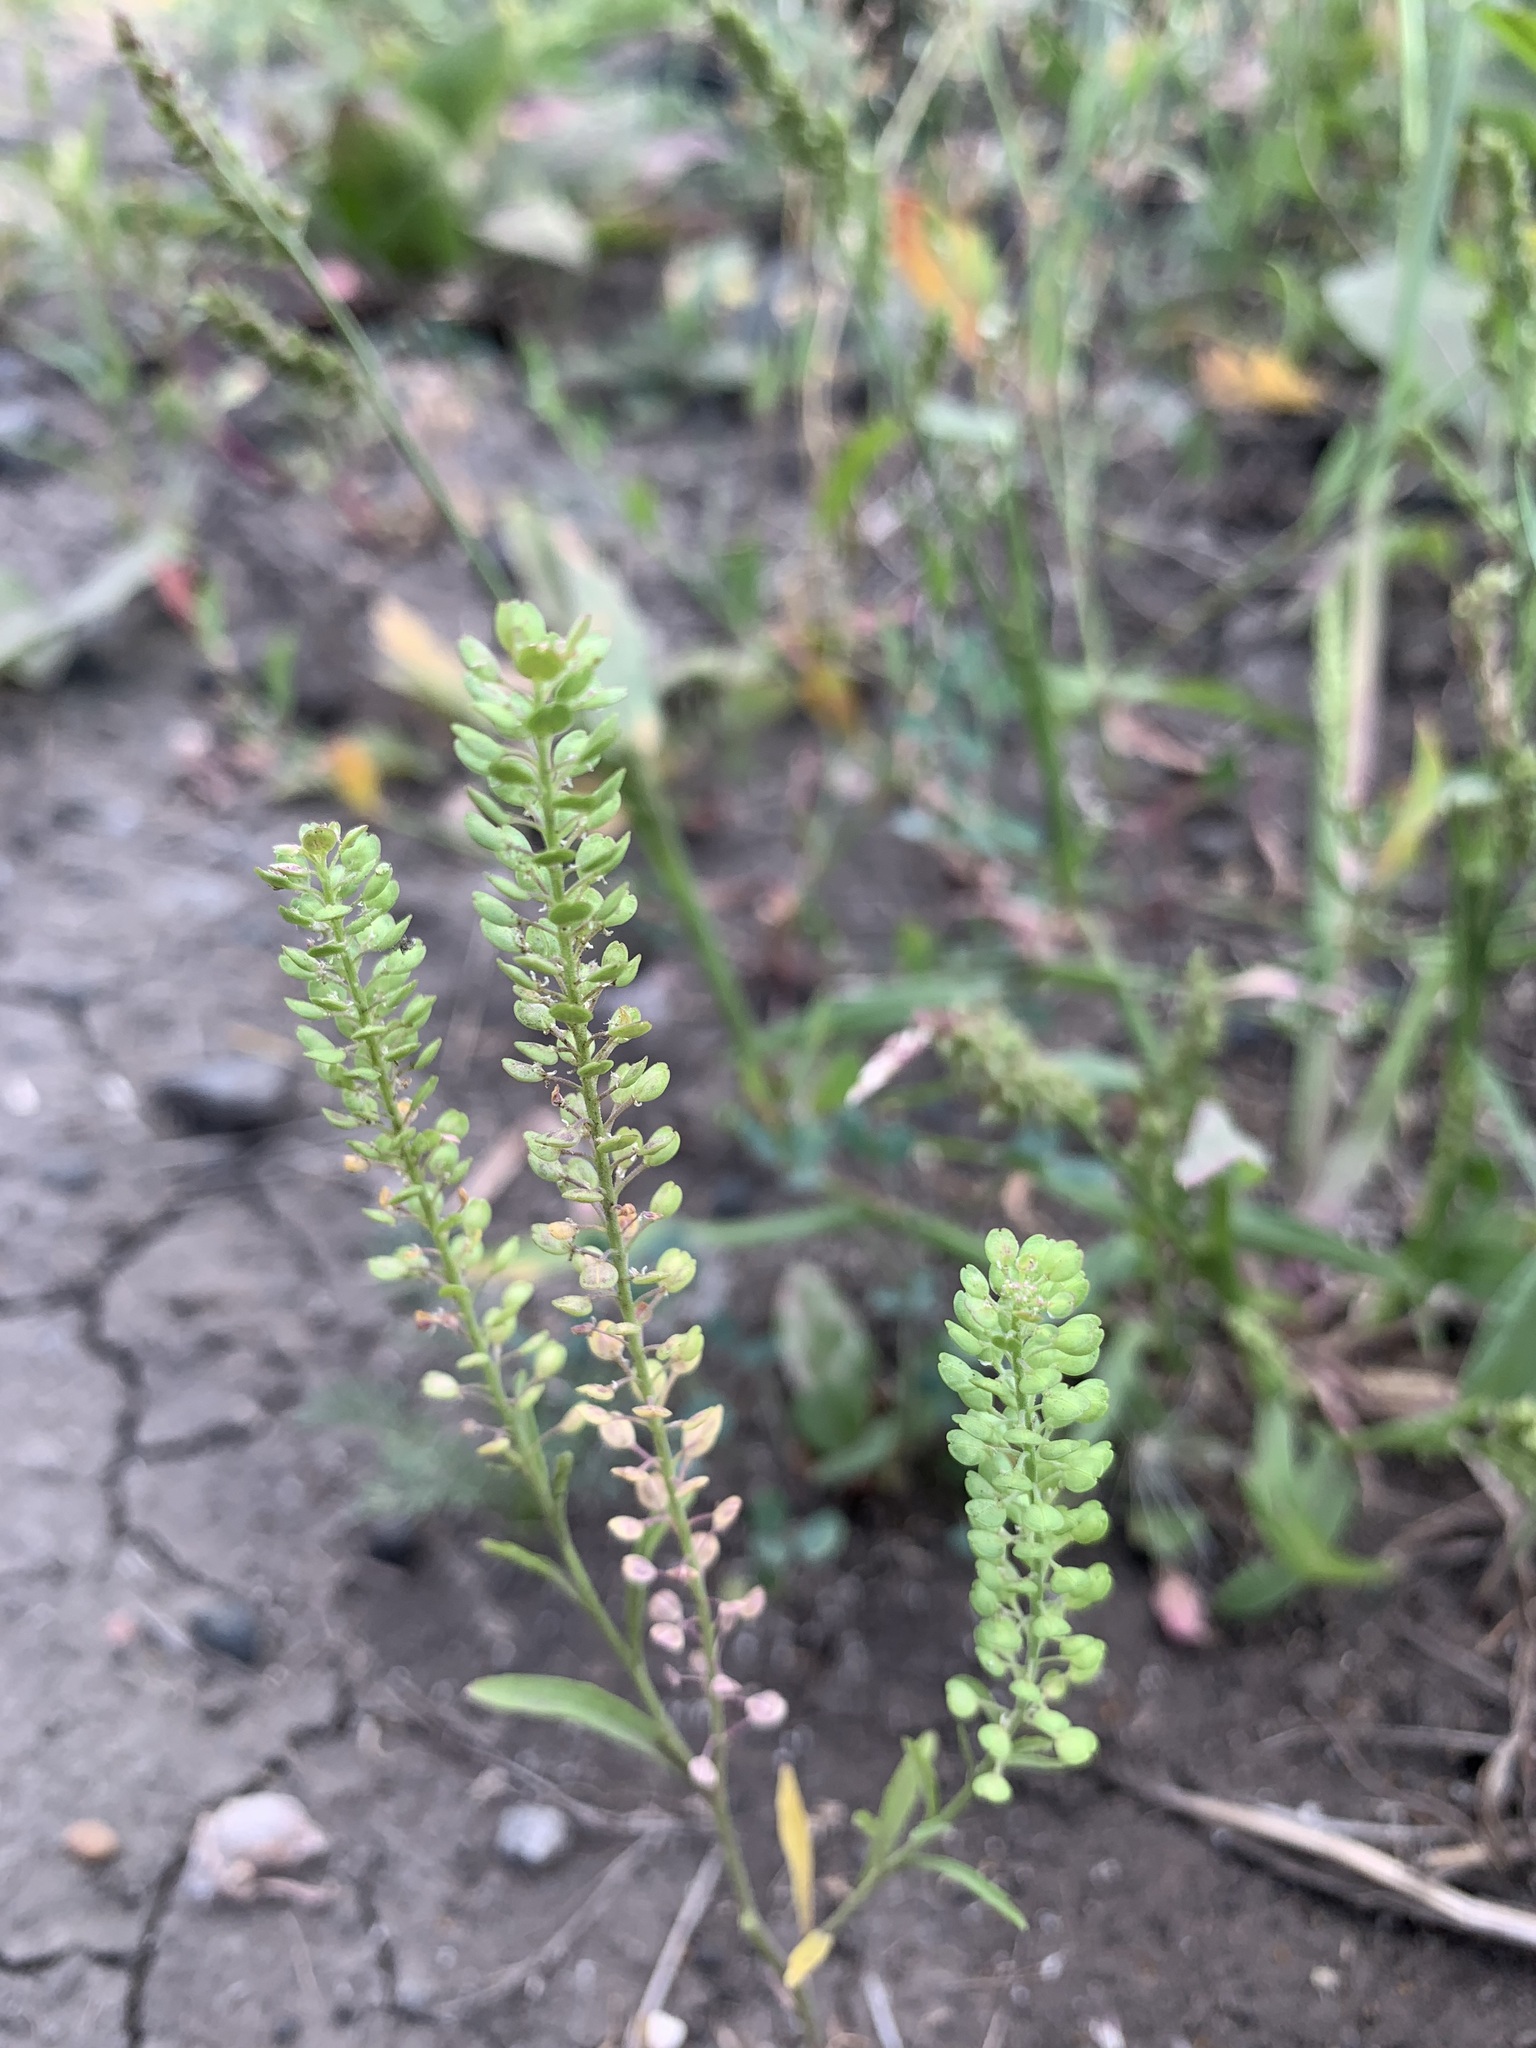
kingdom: Plantae
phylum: Tracheophyta
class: Magnoliopsida
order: Brassicales
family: Brassicaceae
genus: Lepidium
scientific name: Lepidium densiflorum
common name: Miner's pepperwort
